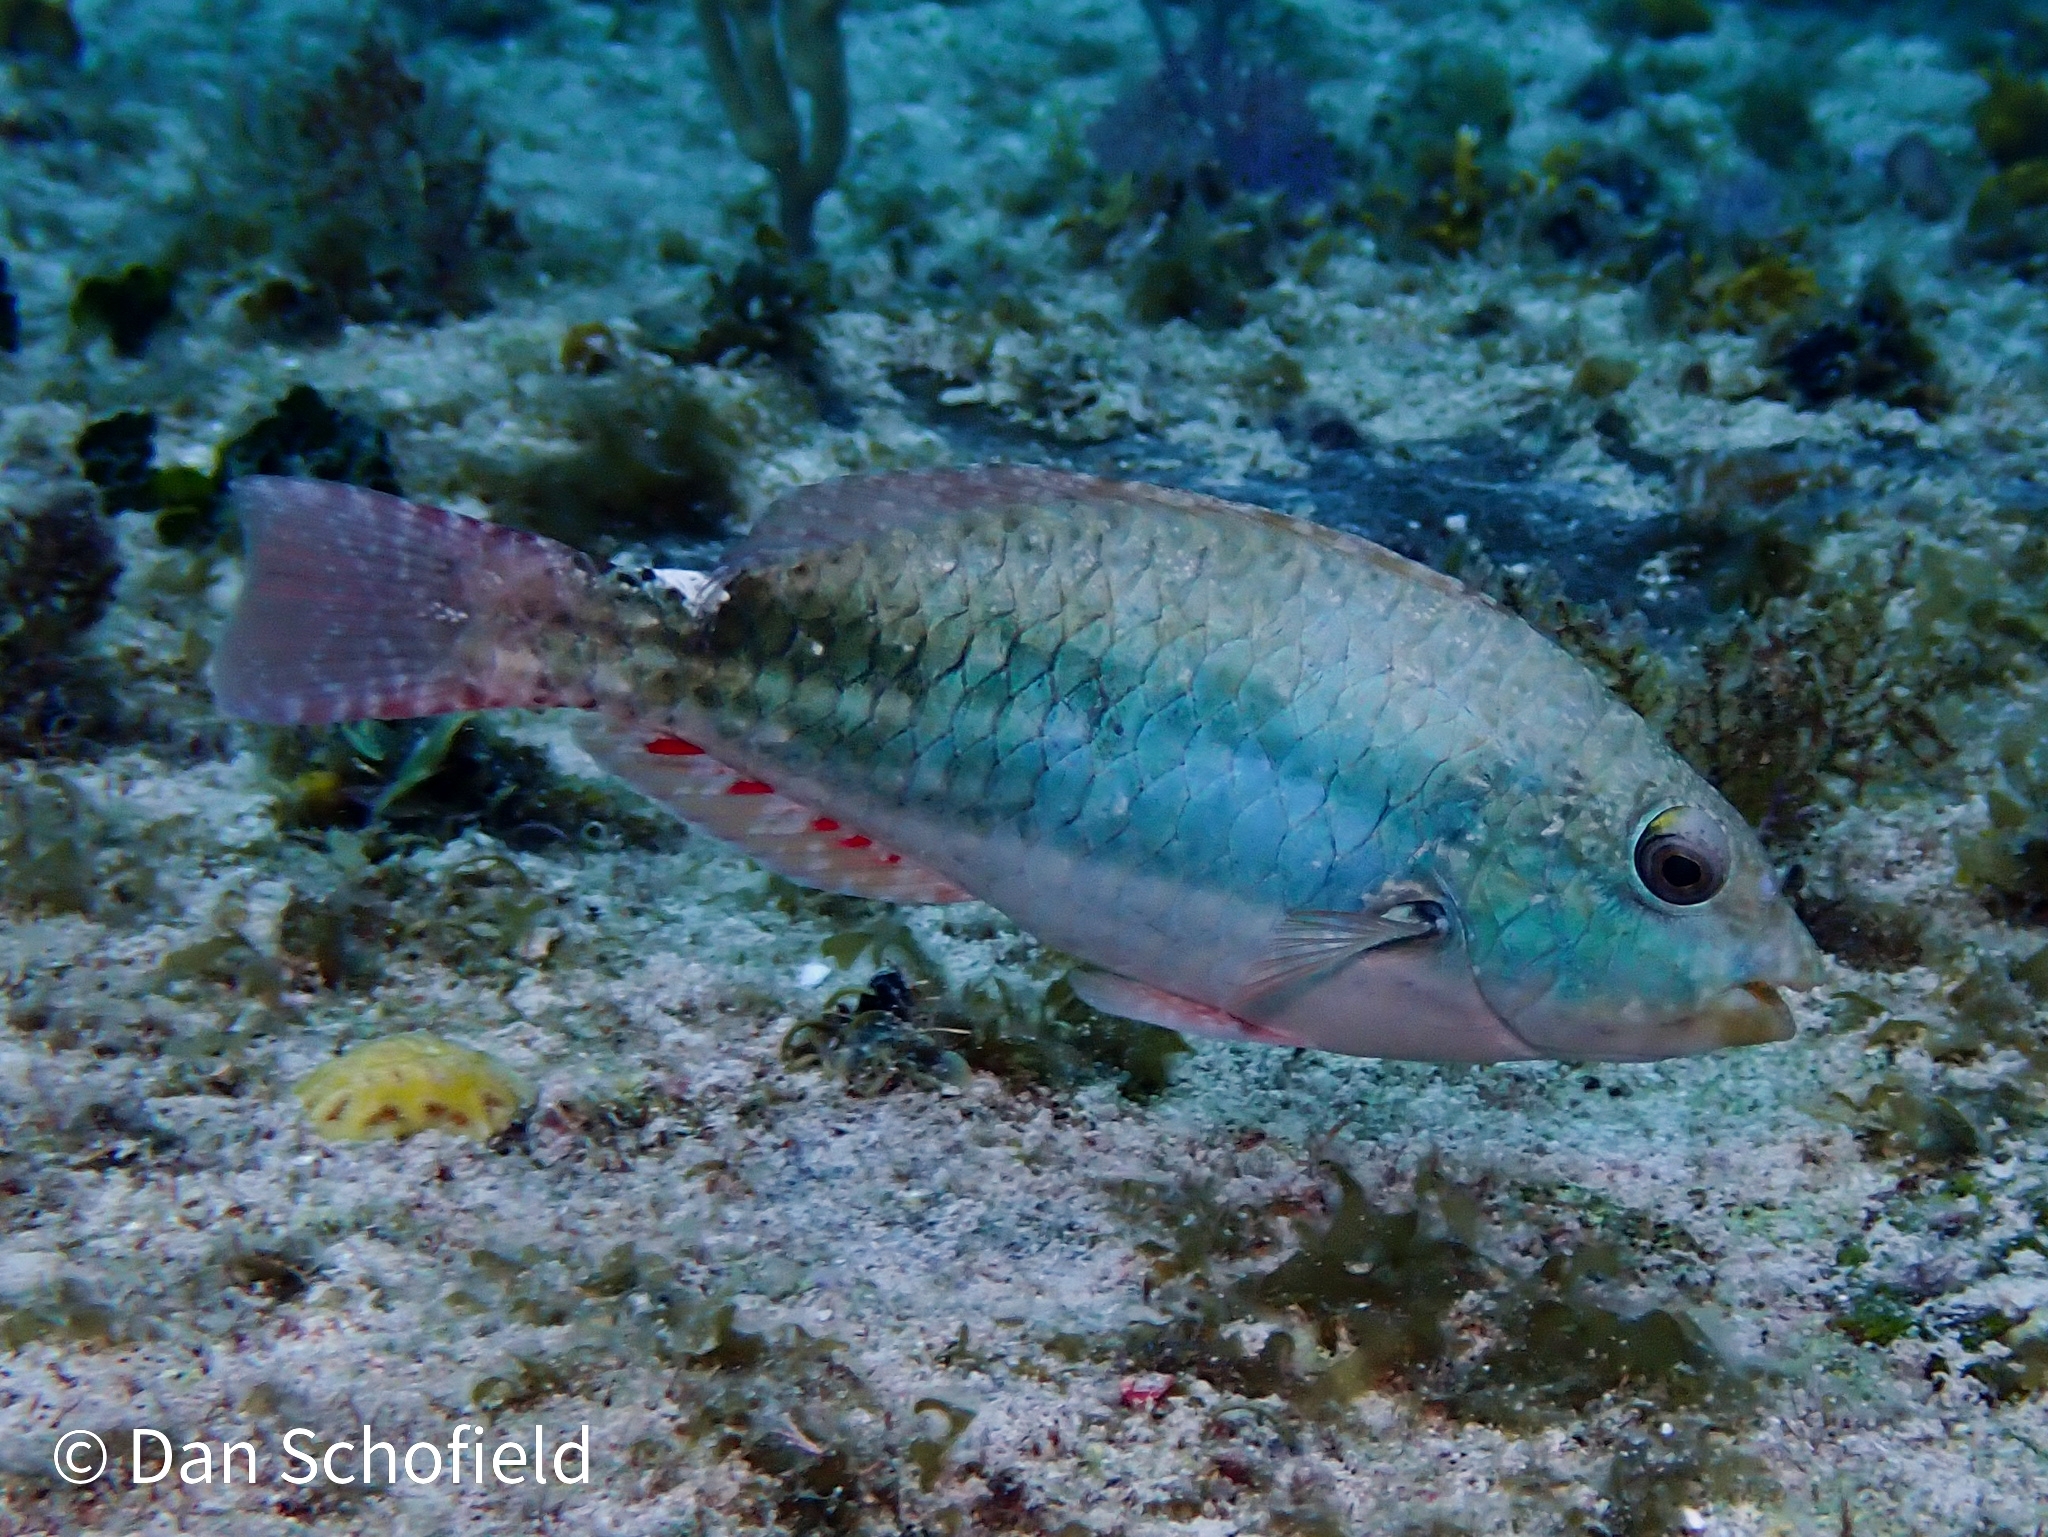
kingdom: Animalia
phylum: Chordata
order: Perciformes
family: Scaridae
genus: Sparisoma
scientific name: Sparisoma aurofrenatum
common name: Redband parrotfish
